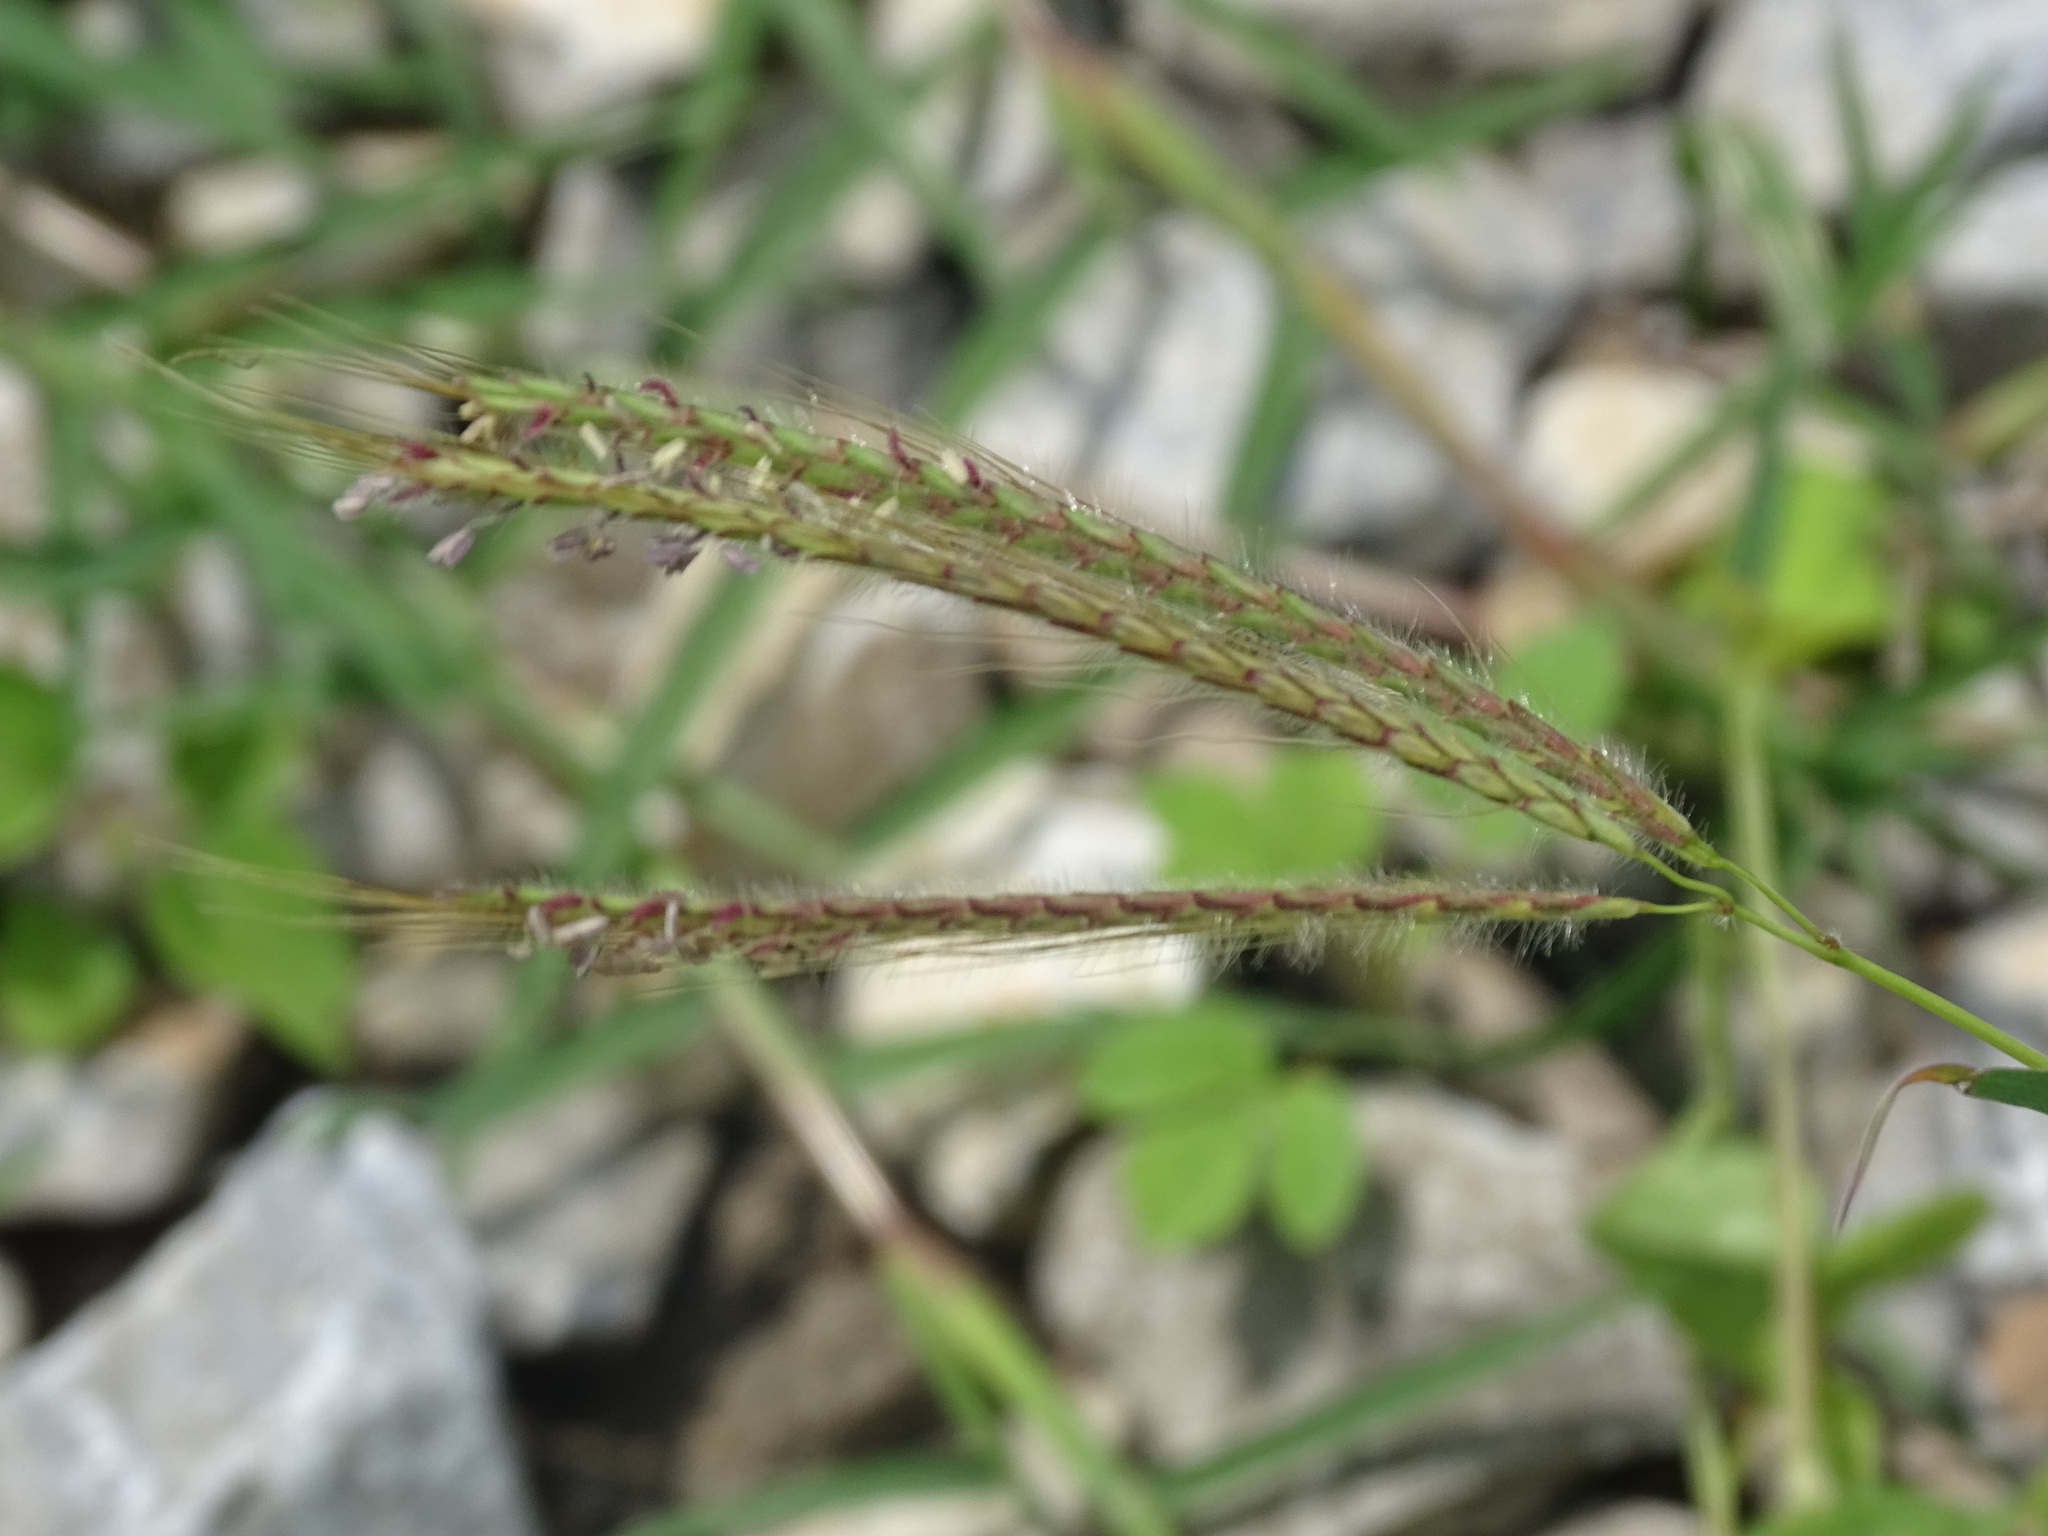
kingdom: Plantae
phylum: Tracheophyta
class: Liliopsida
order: Poales
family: Poaceae
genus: Dichanthium
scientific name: Dichanthium annulatum
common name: Kleberg's bluestem
